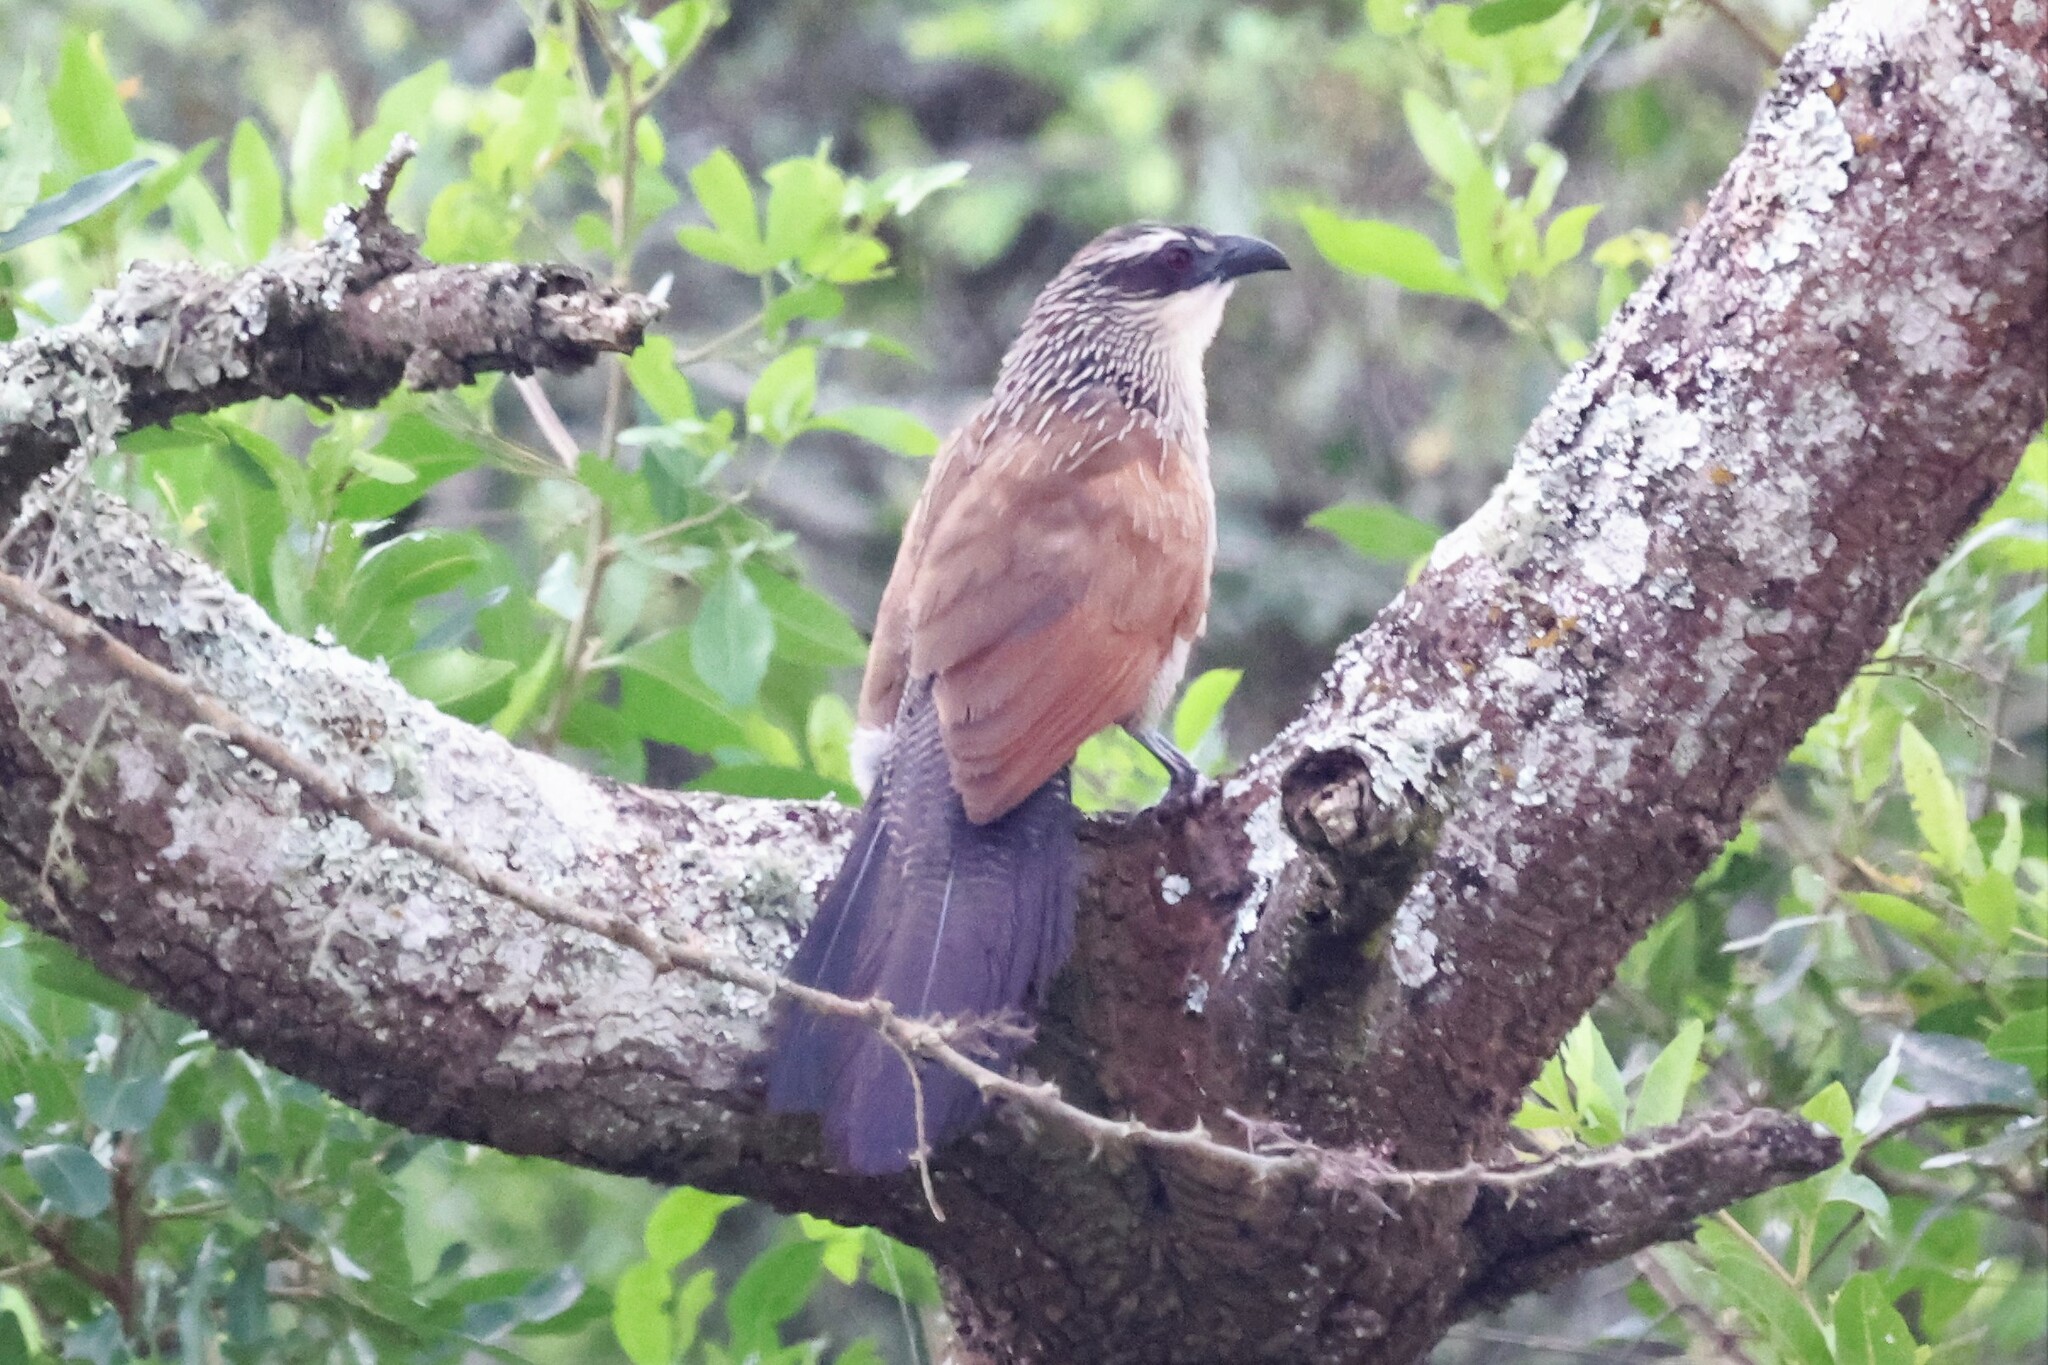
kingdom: Animalia
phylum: Chordata
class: Aves
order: Cuculiformes
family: Cuculidae
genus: Centropus
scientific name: Centropus superciliosus
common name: White-browed coucal
